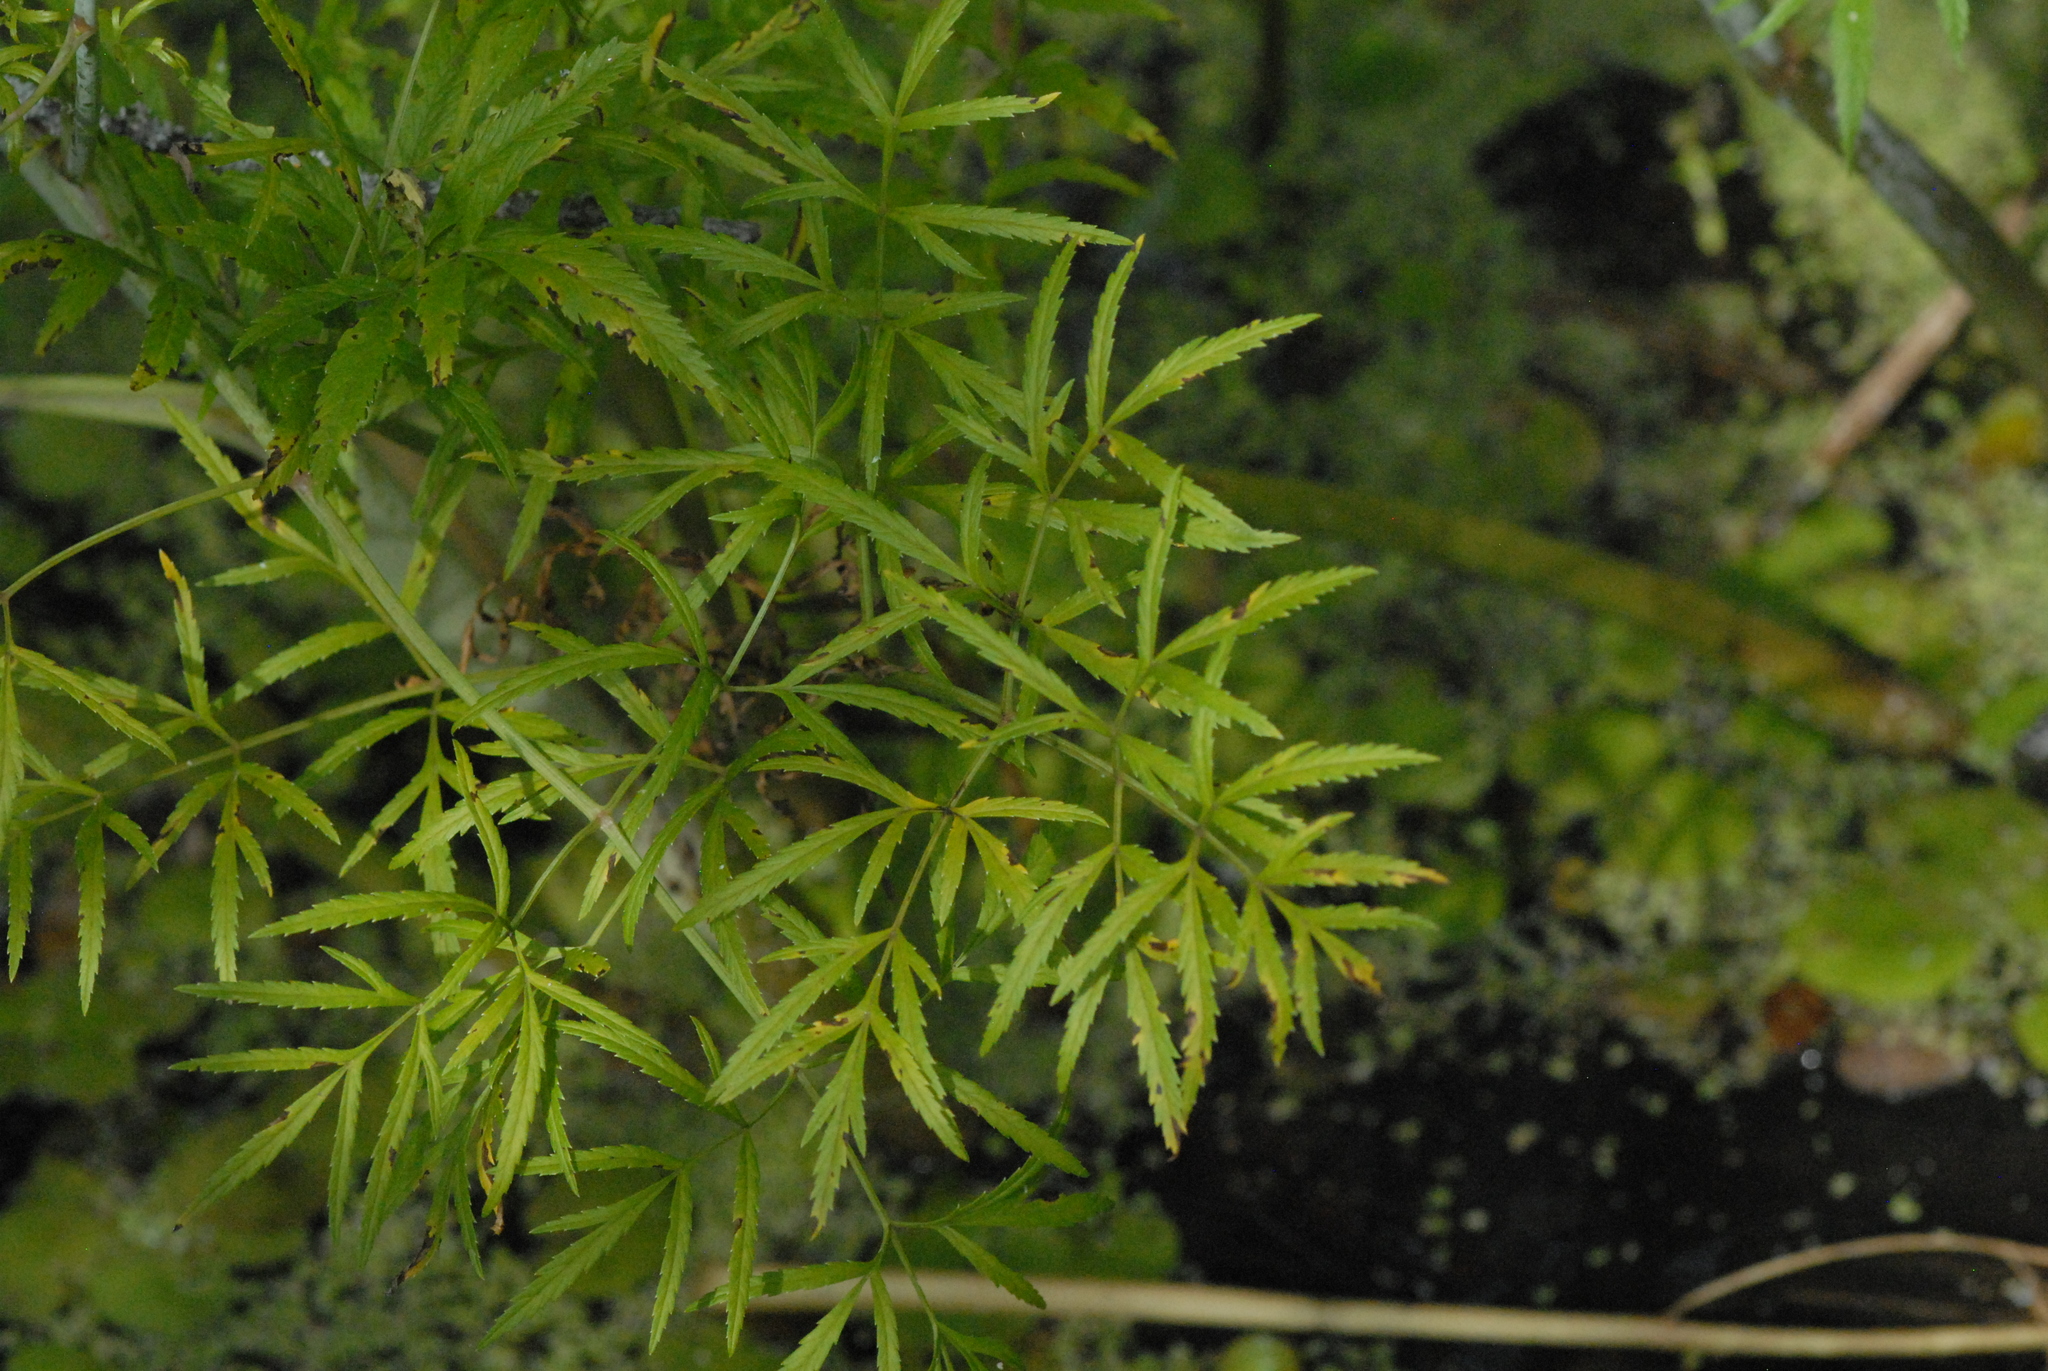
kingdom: Plantae
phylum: Tracheophyta
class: Magnoliopsida
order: Apiales
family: Apiaceae
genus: Cicuta
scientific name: Cicuta virosa
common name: Cowbane
